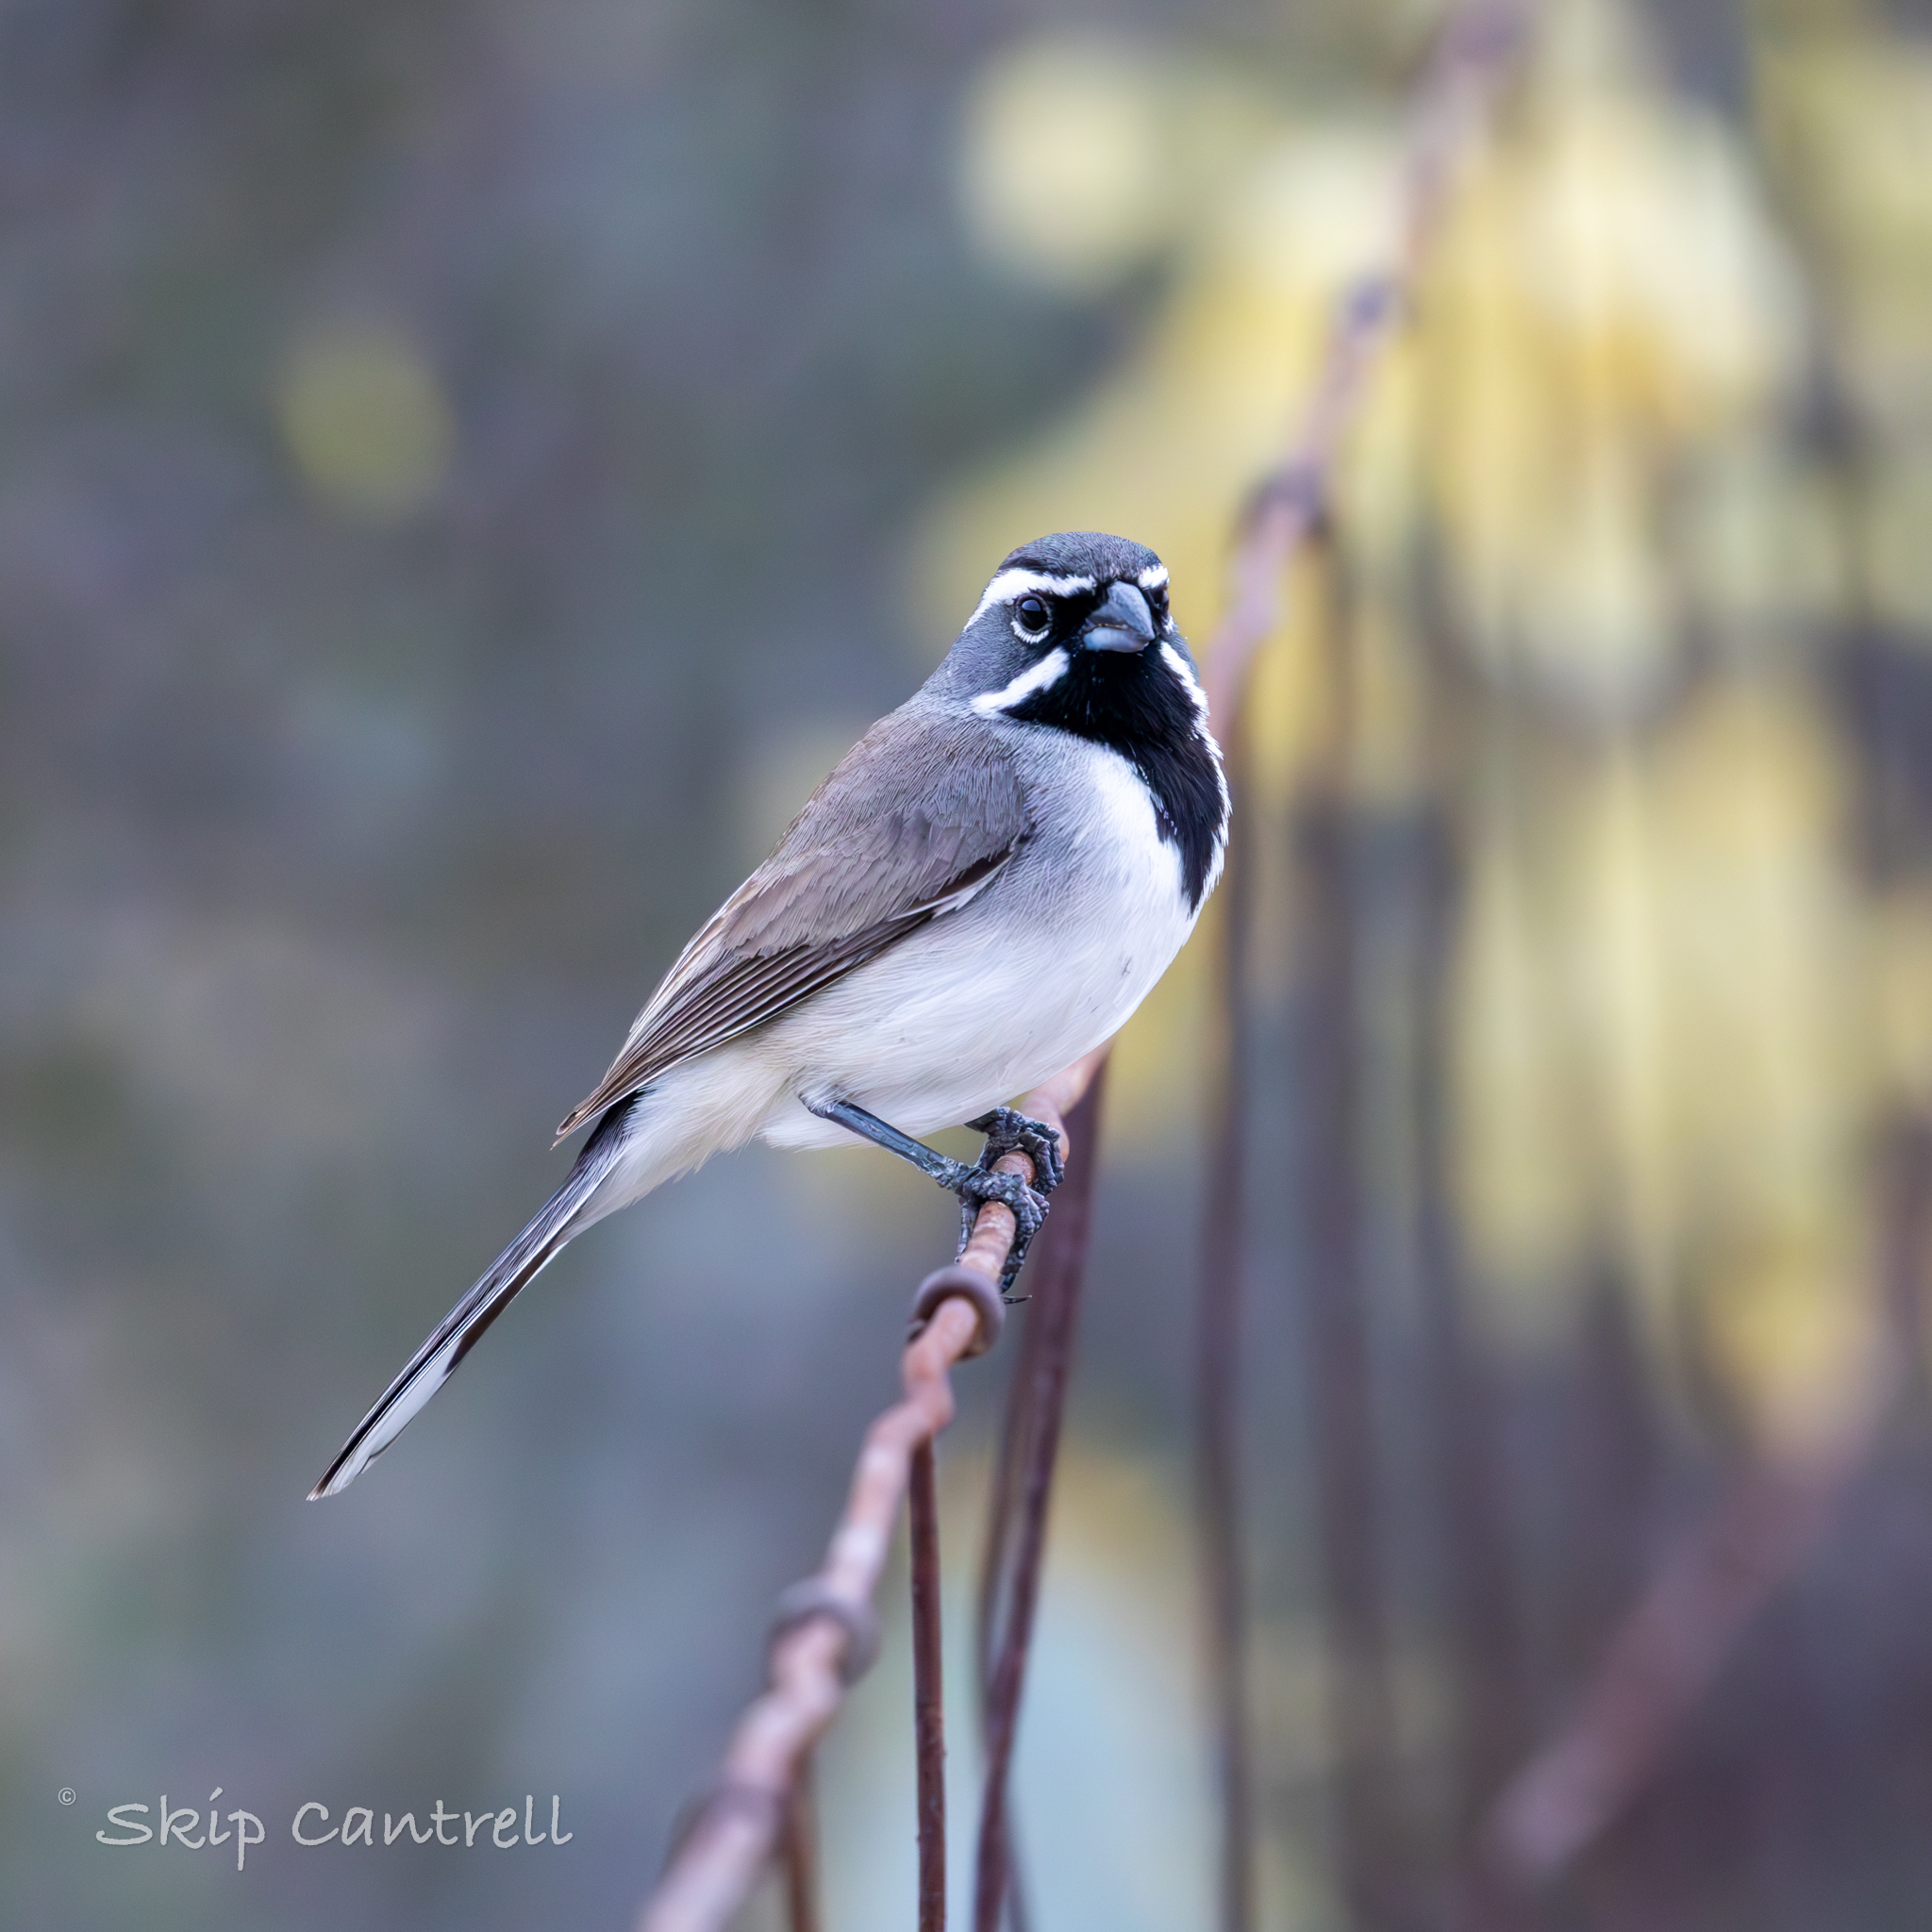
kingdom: Animalia
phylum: Chordata
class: Aves
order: Passeriformes
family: Passerellidae
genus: Amphispiza
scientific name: Amphispiza bilineata
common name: Black-throated sparrow
